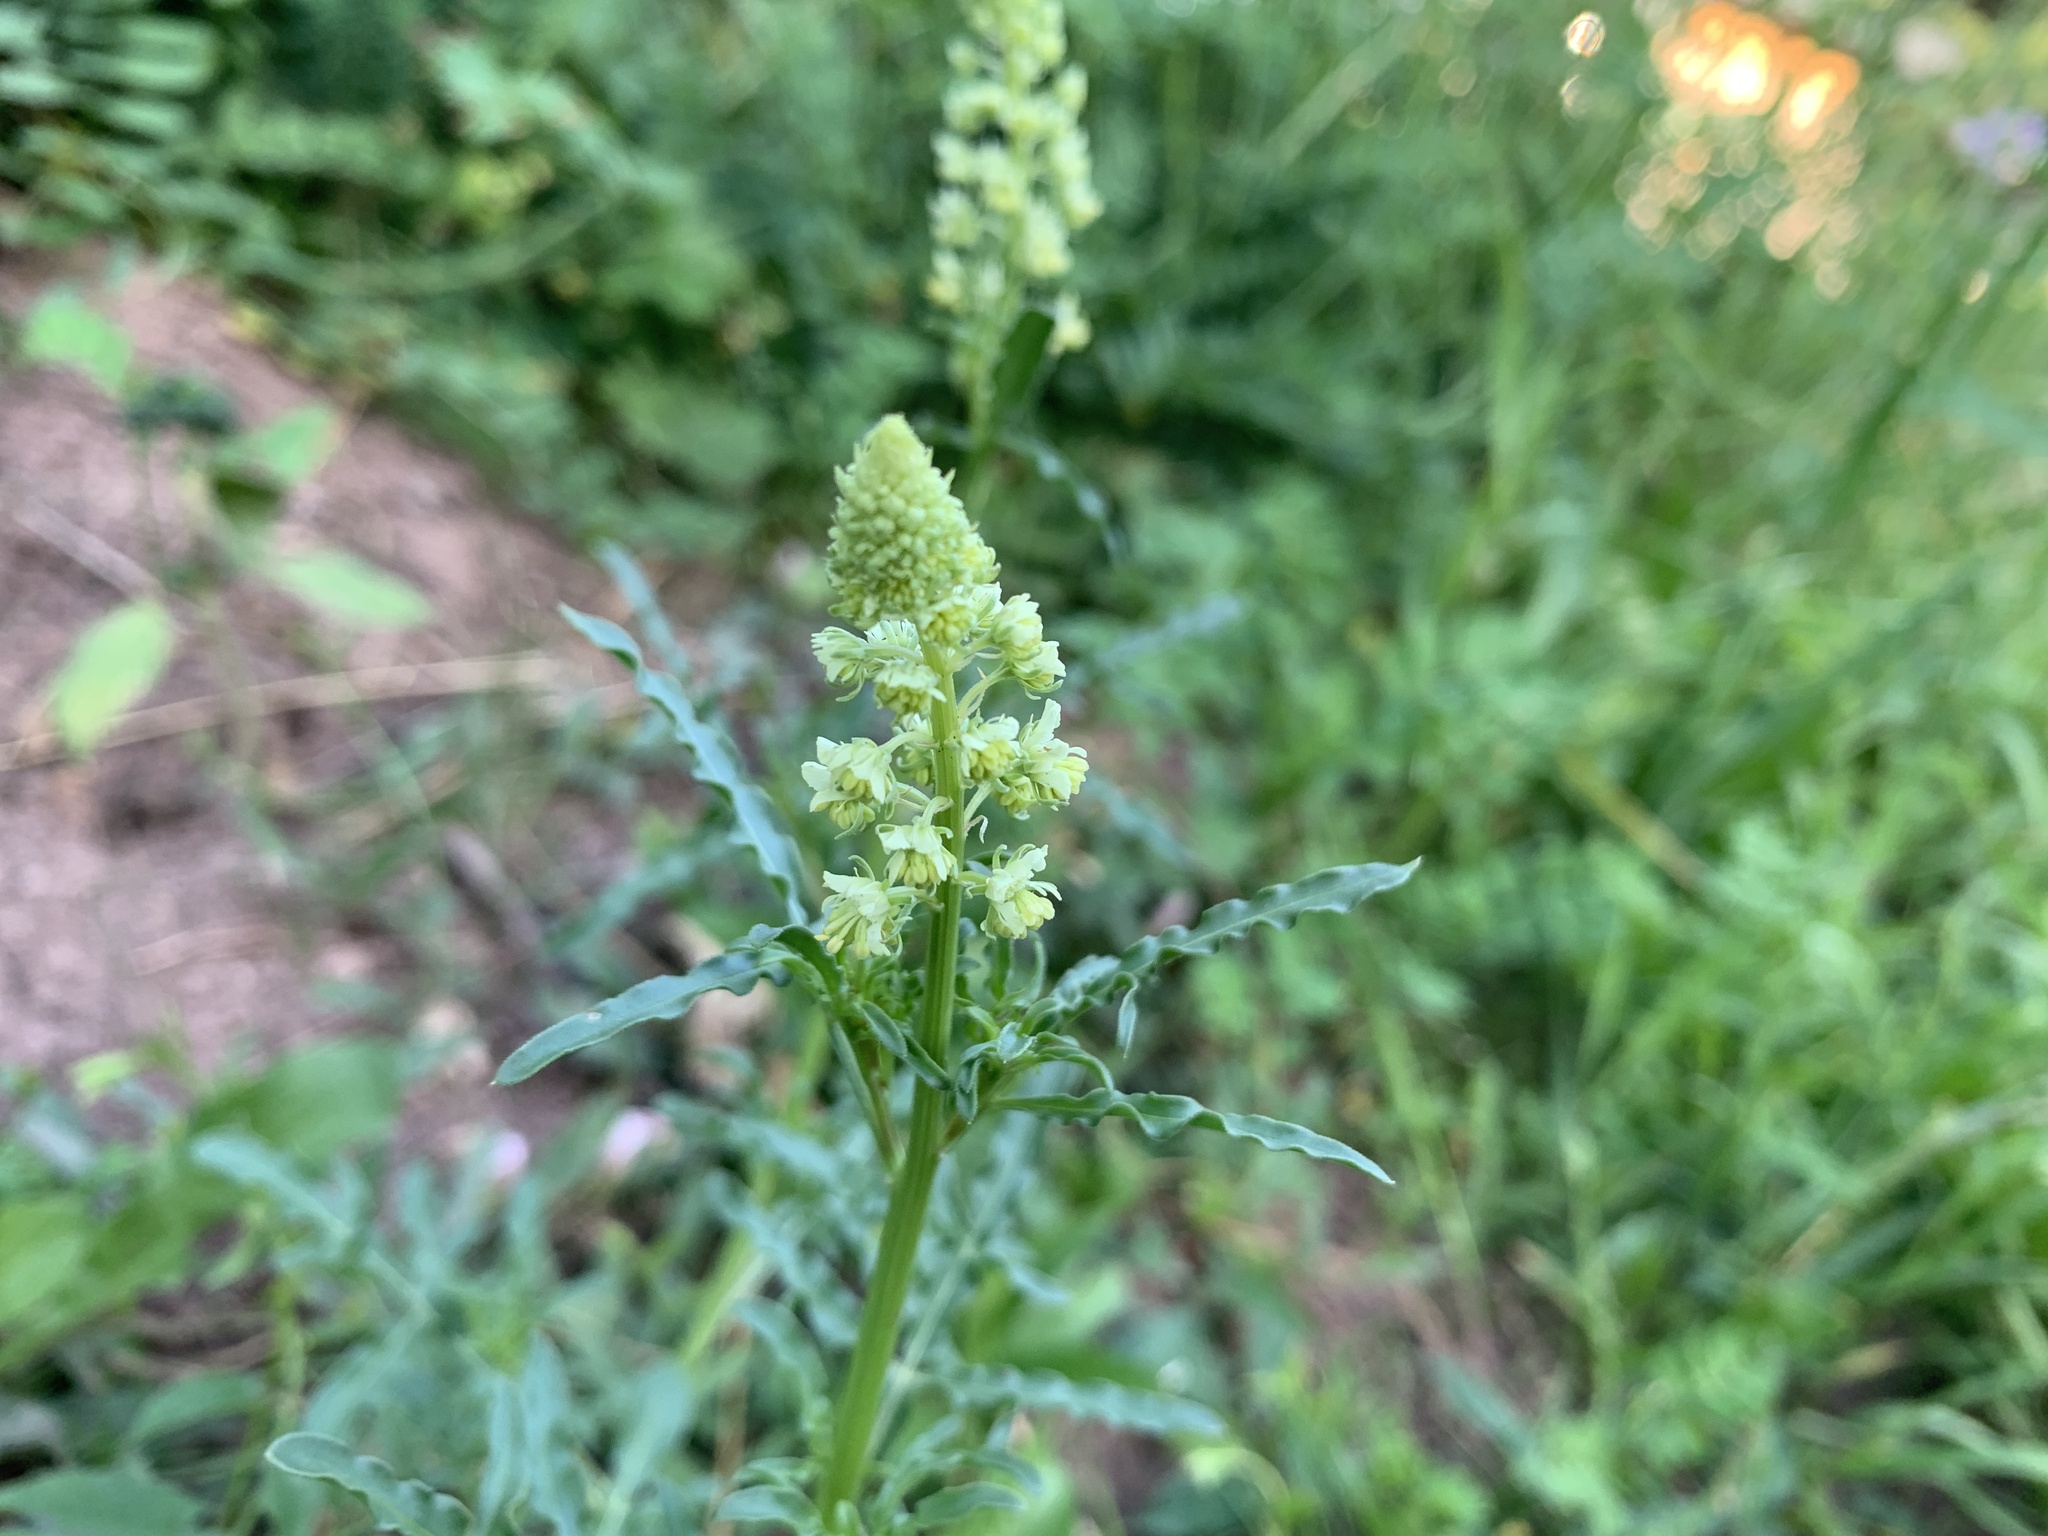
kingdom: Plantae
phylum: Tracheophyta
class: Magnoliopsida
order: Brassicales
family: Resedaceae
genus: Reseda
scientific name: Reseda lutea
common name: Wild mignonette
